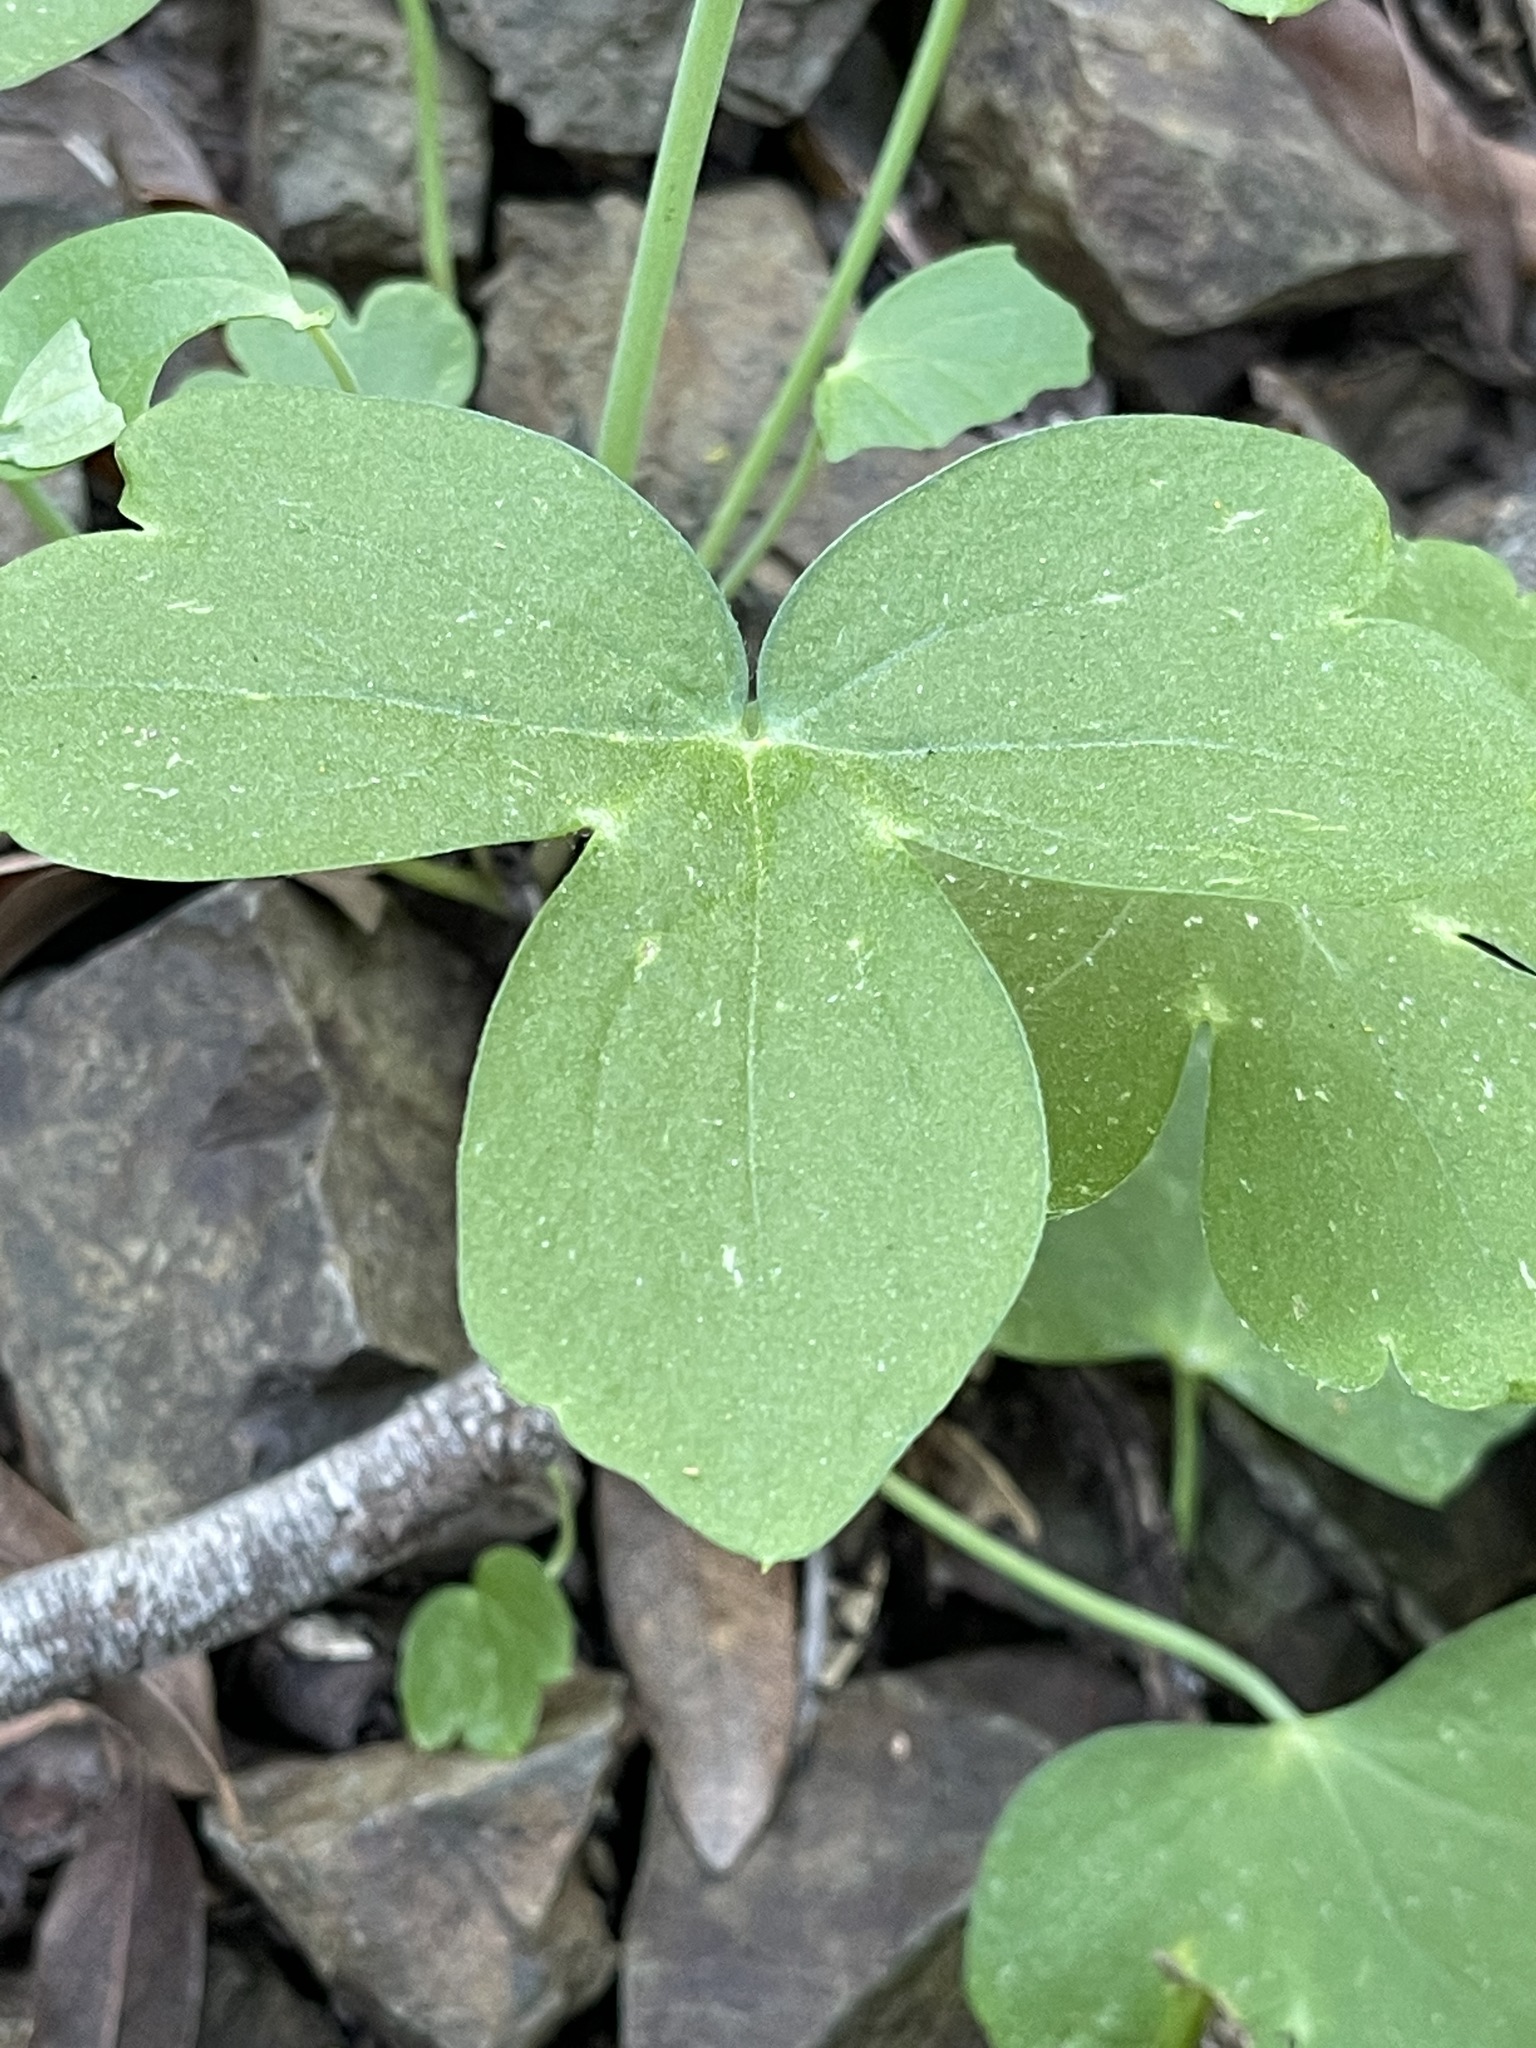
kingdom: Plantae
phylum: Tracheophyta
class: Magnoliopsida
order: Ranunculales
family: Ranunculaceae
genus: Delphinium
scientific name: Delphinium nudicaule
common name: Red larkspur
